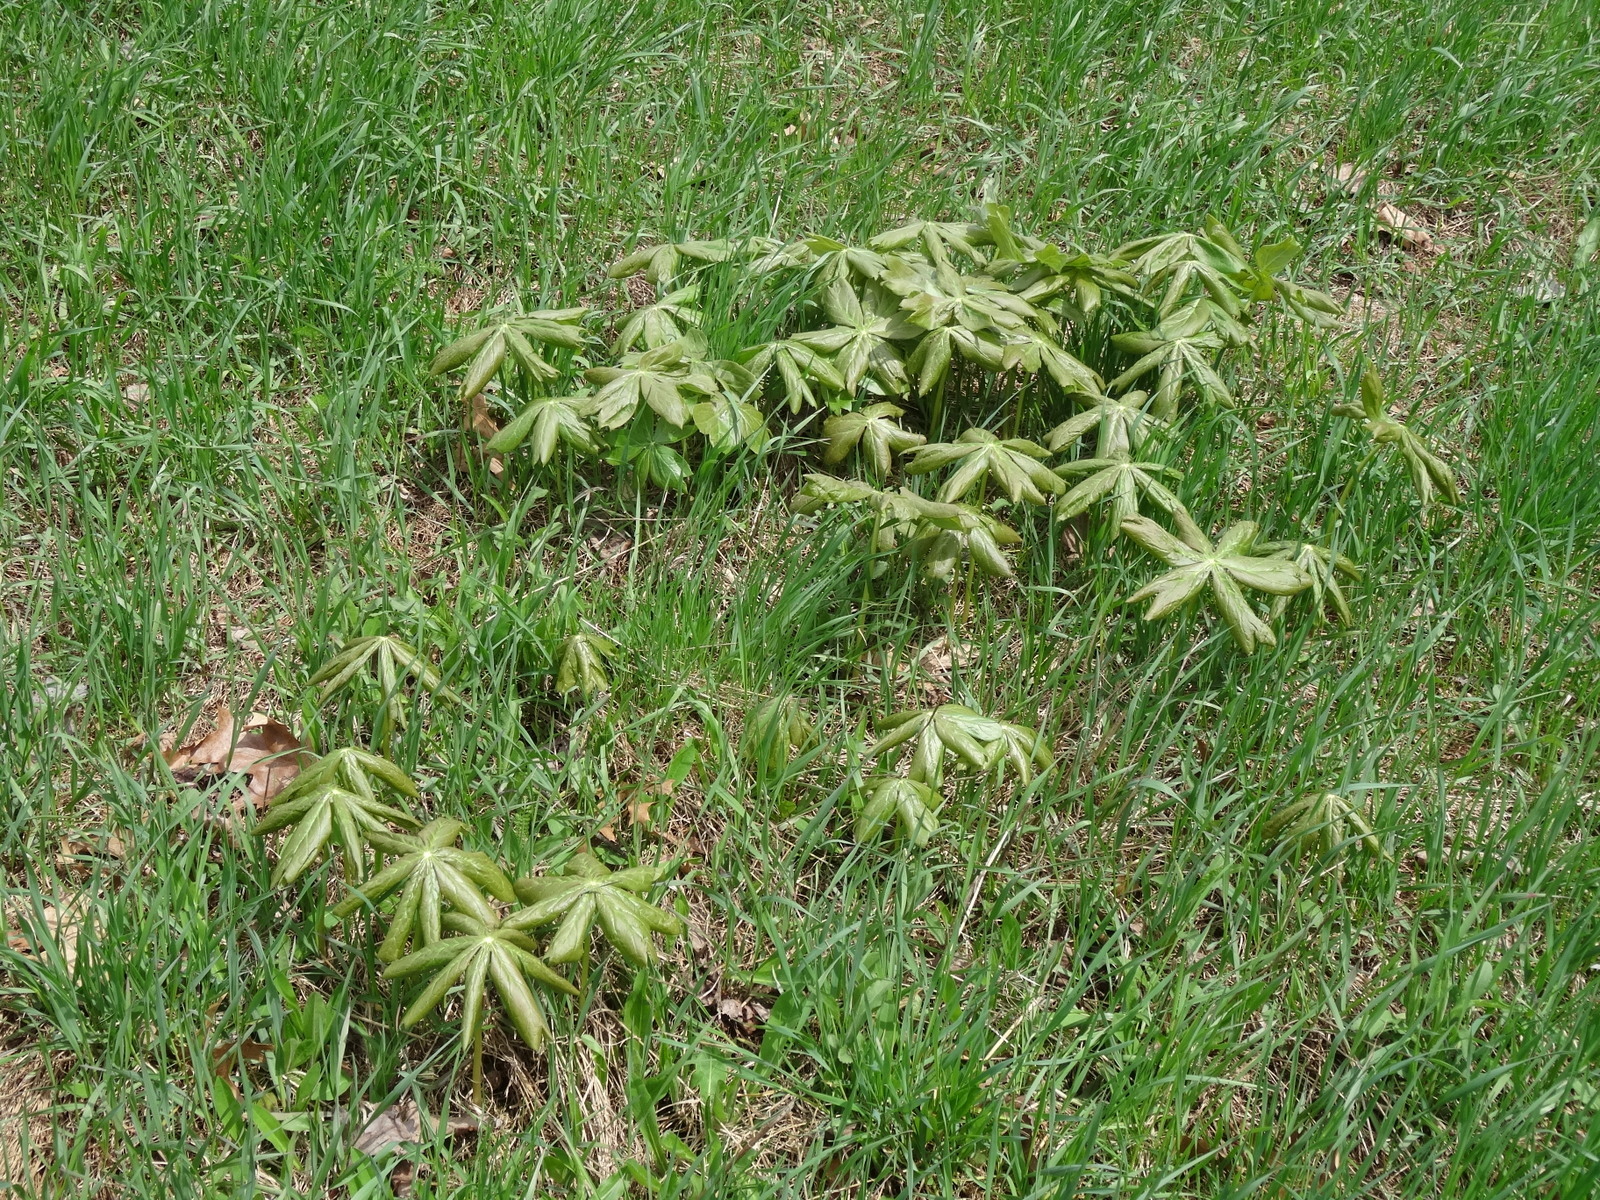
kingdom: Plantae
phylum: Tracheophyta
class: Magnoliopsida
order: Ranunculales
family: Berberidaceae
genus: Podophyllum
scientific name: Podophyllum peltatum
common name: Wild mandrake
